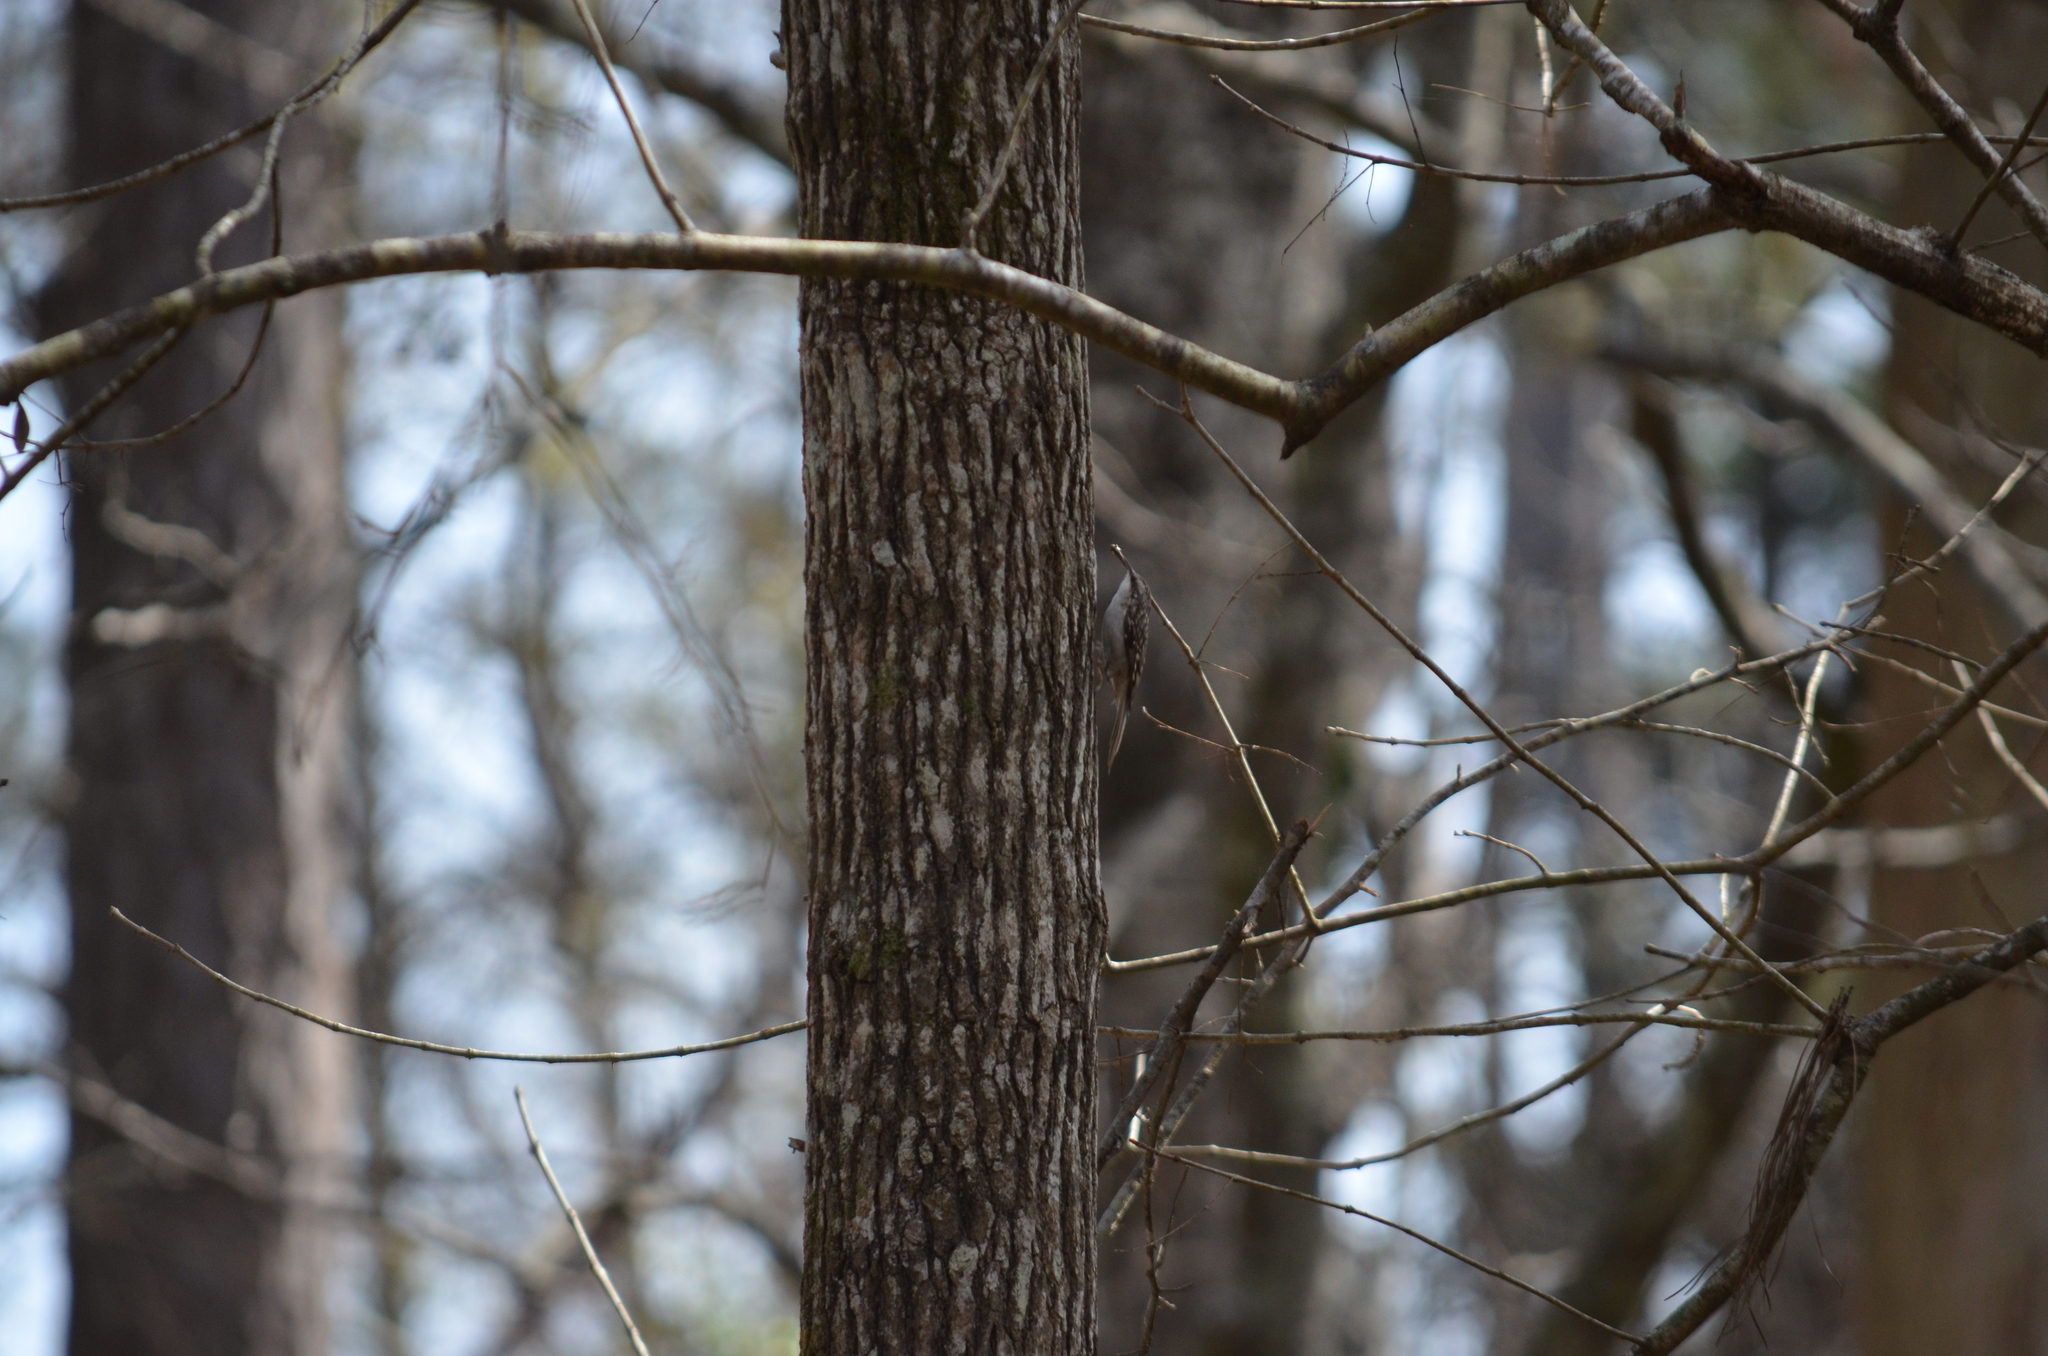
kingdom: Animalia
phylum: Chordata
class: Aves
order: Passeriformes
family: Certhiidae
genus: Certhia
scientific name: Certhia americana
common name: Brown creeper
